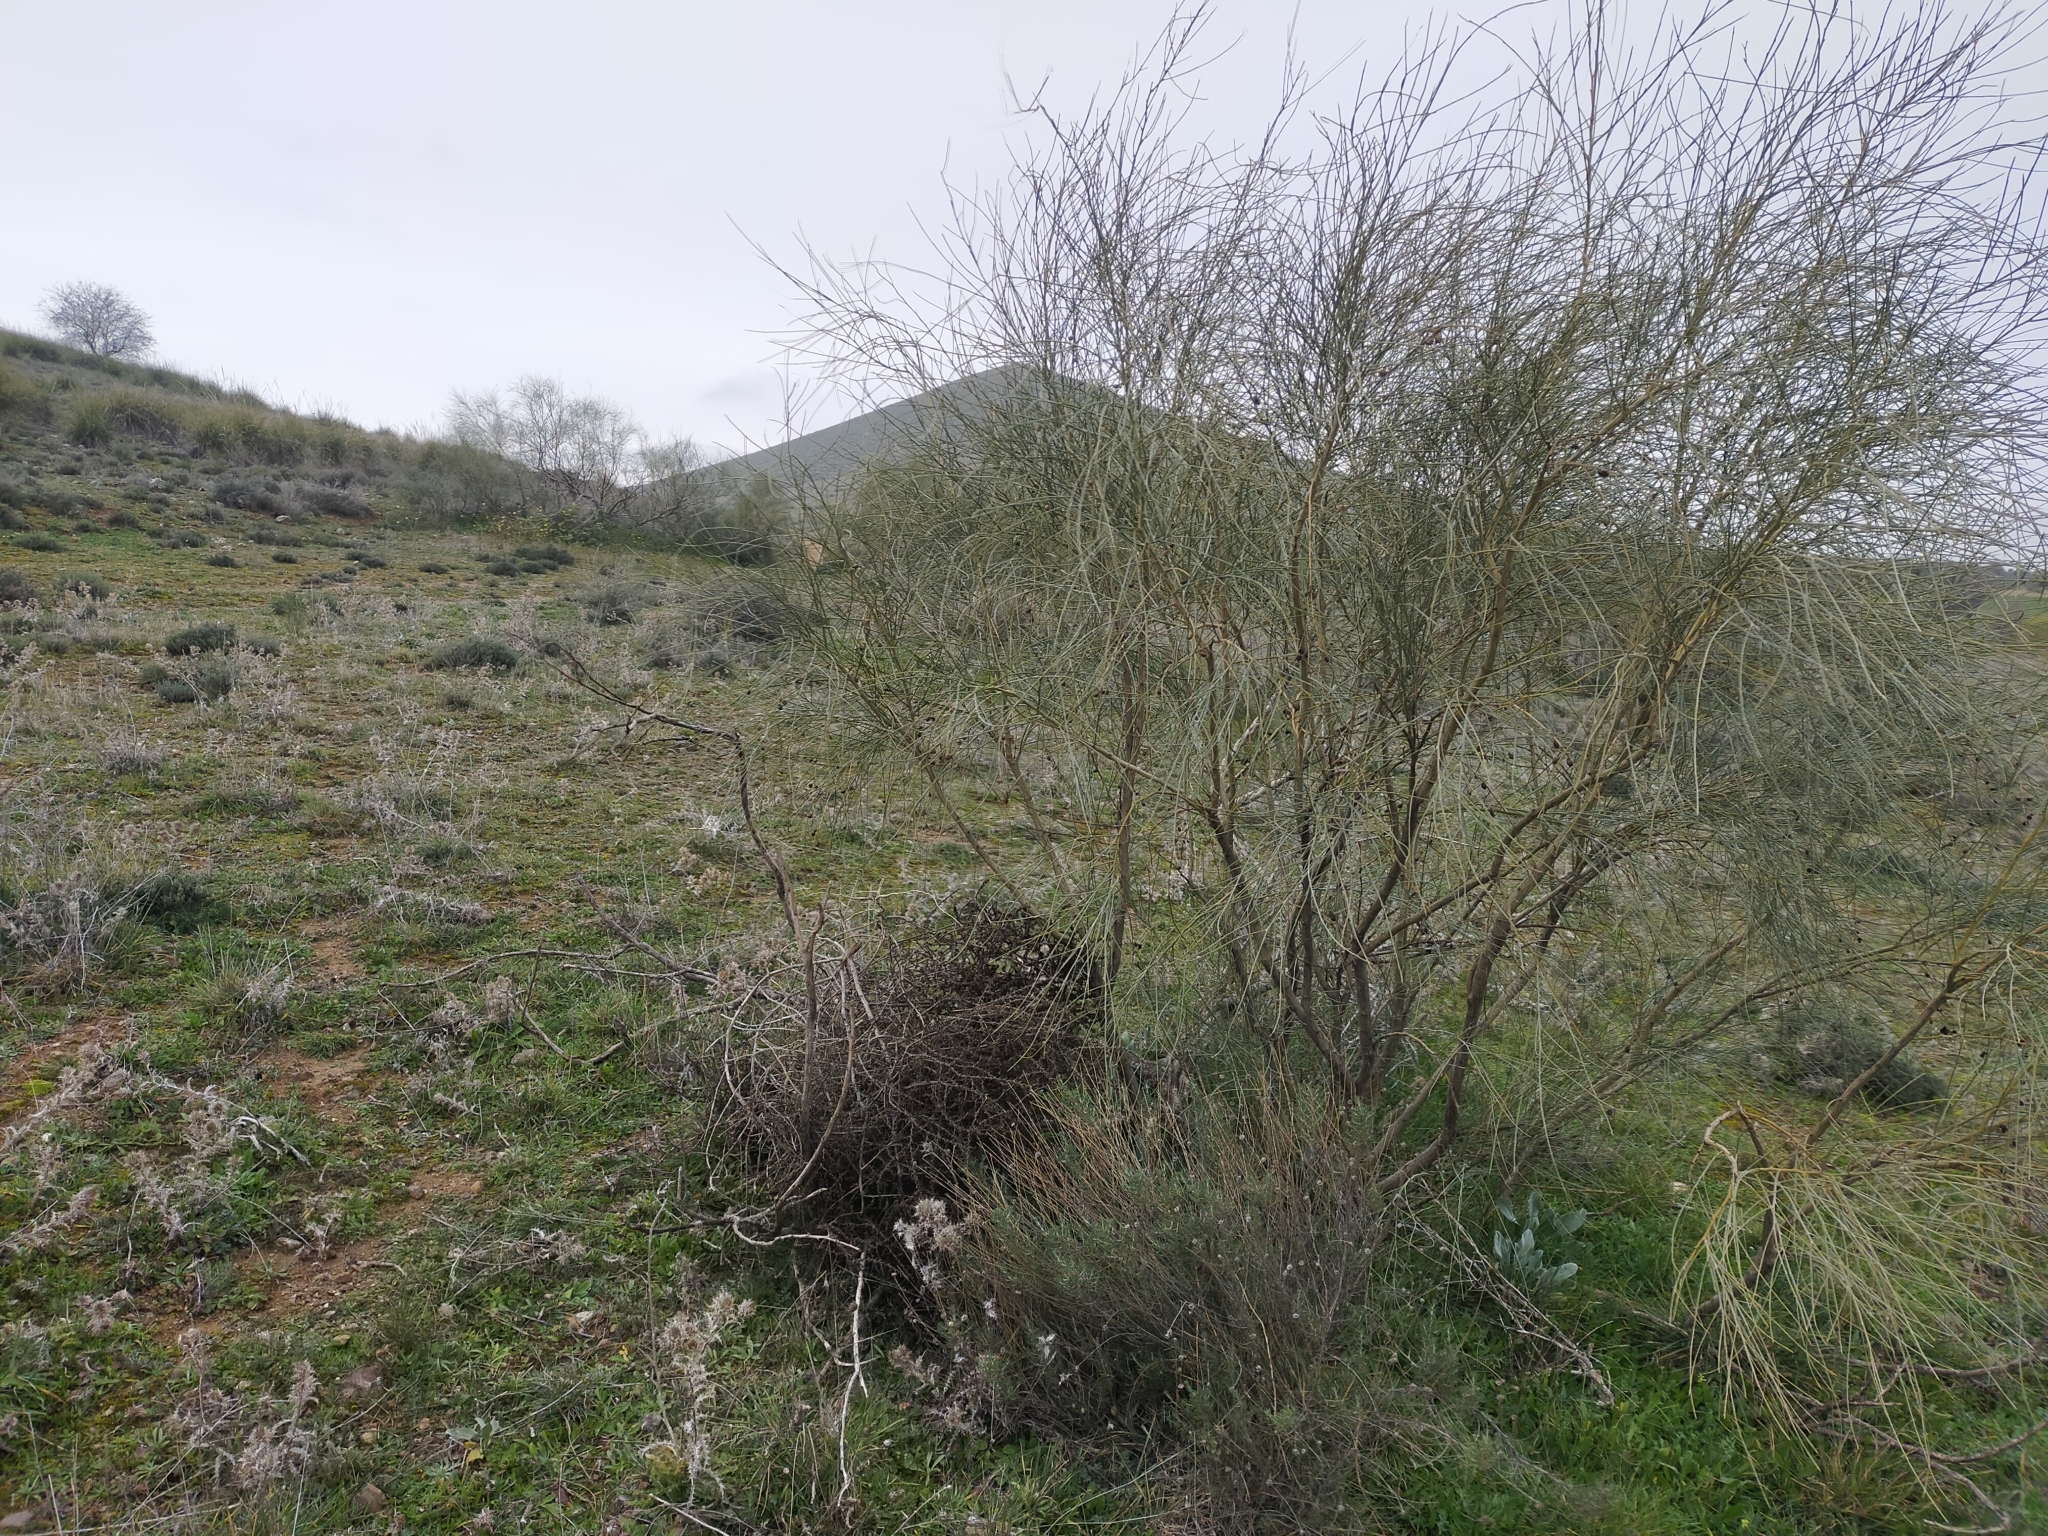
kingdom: Plantae
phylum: Tracheophyta
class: Magnoliopsida
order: Fabales
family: Fabaceae
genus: Retama
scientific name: Retama sphaerocarpa
